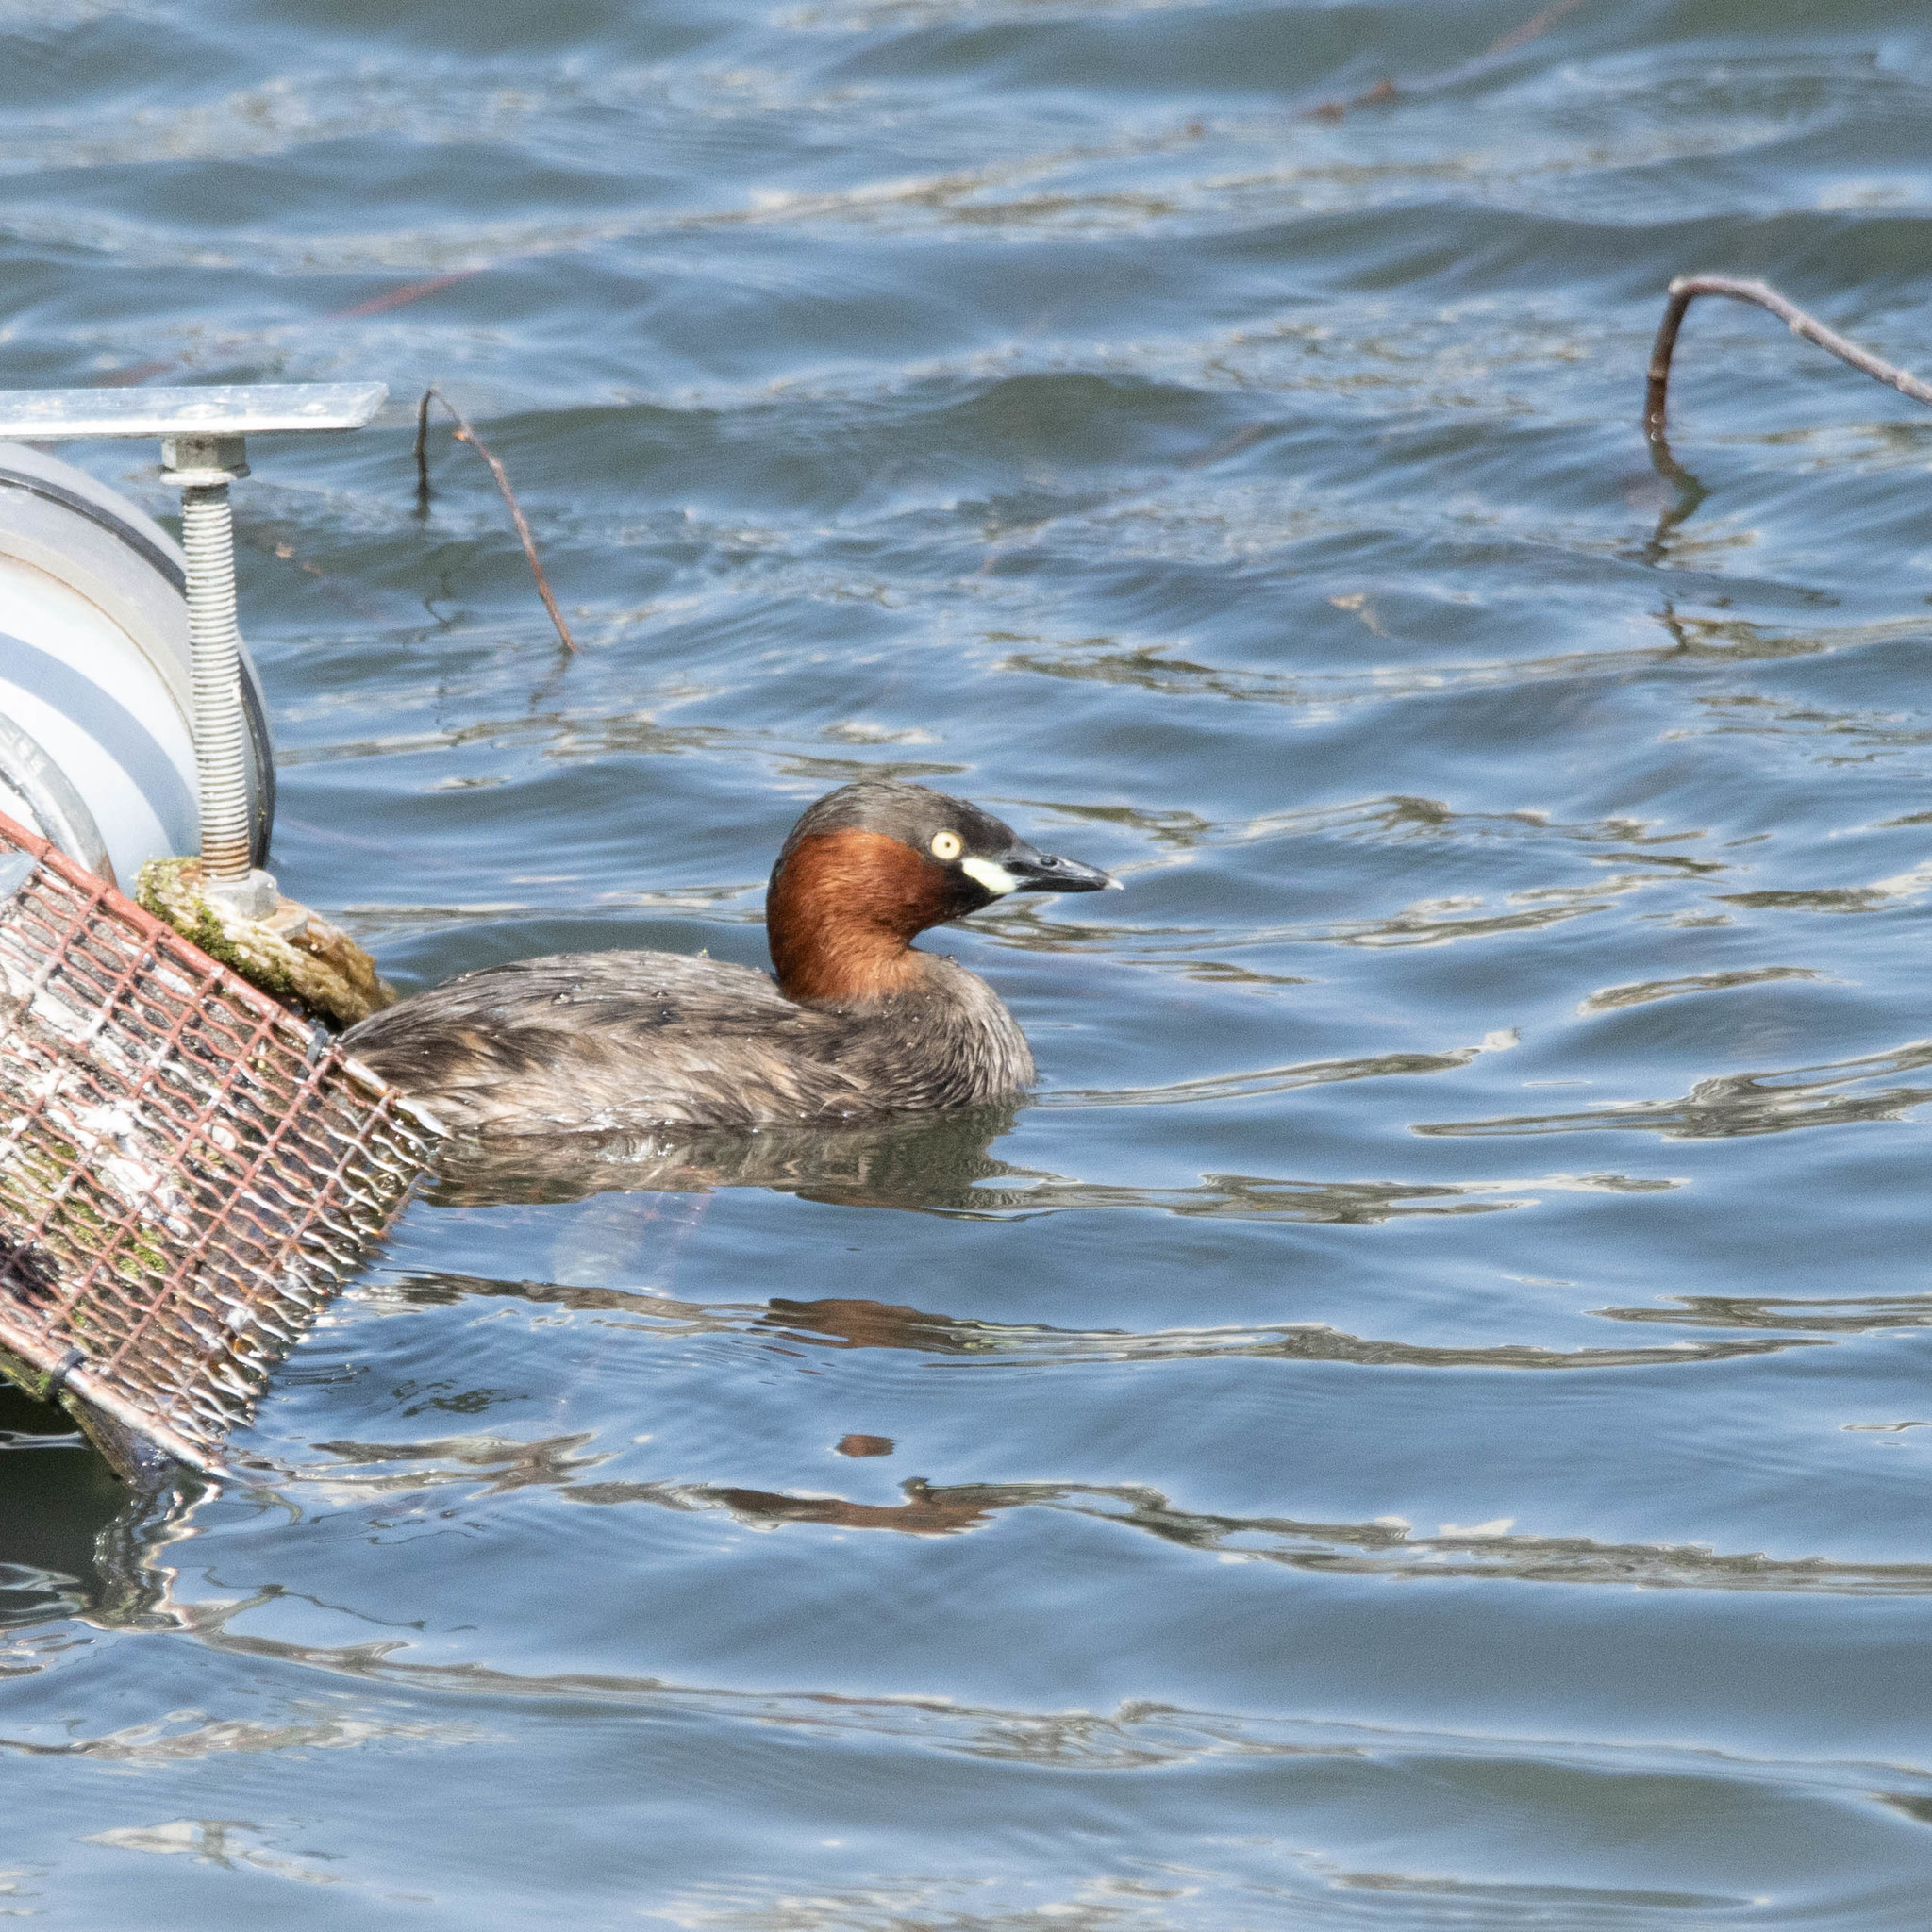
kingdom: Animalia
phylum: Chordata
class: Aves
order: Podicipediformes
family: Podicipedidae
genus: Tachybaptus
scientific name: Tachybaptus ruficollis
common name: Little grebe
